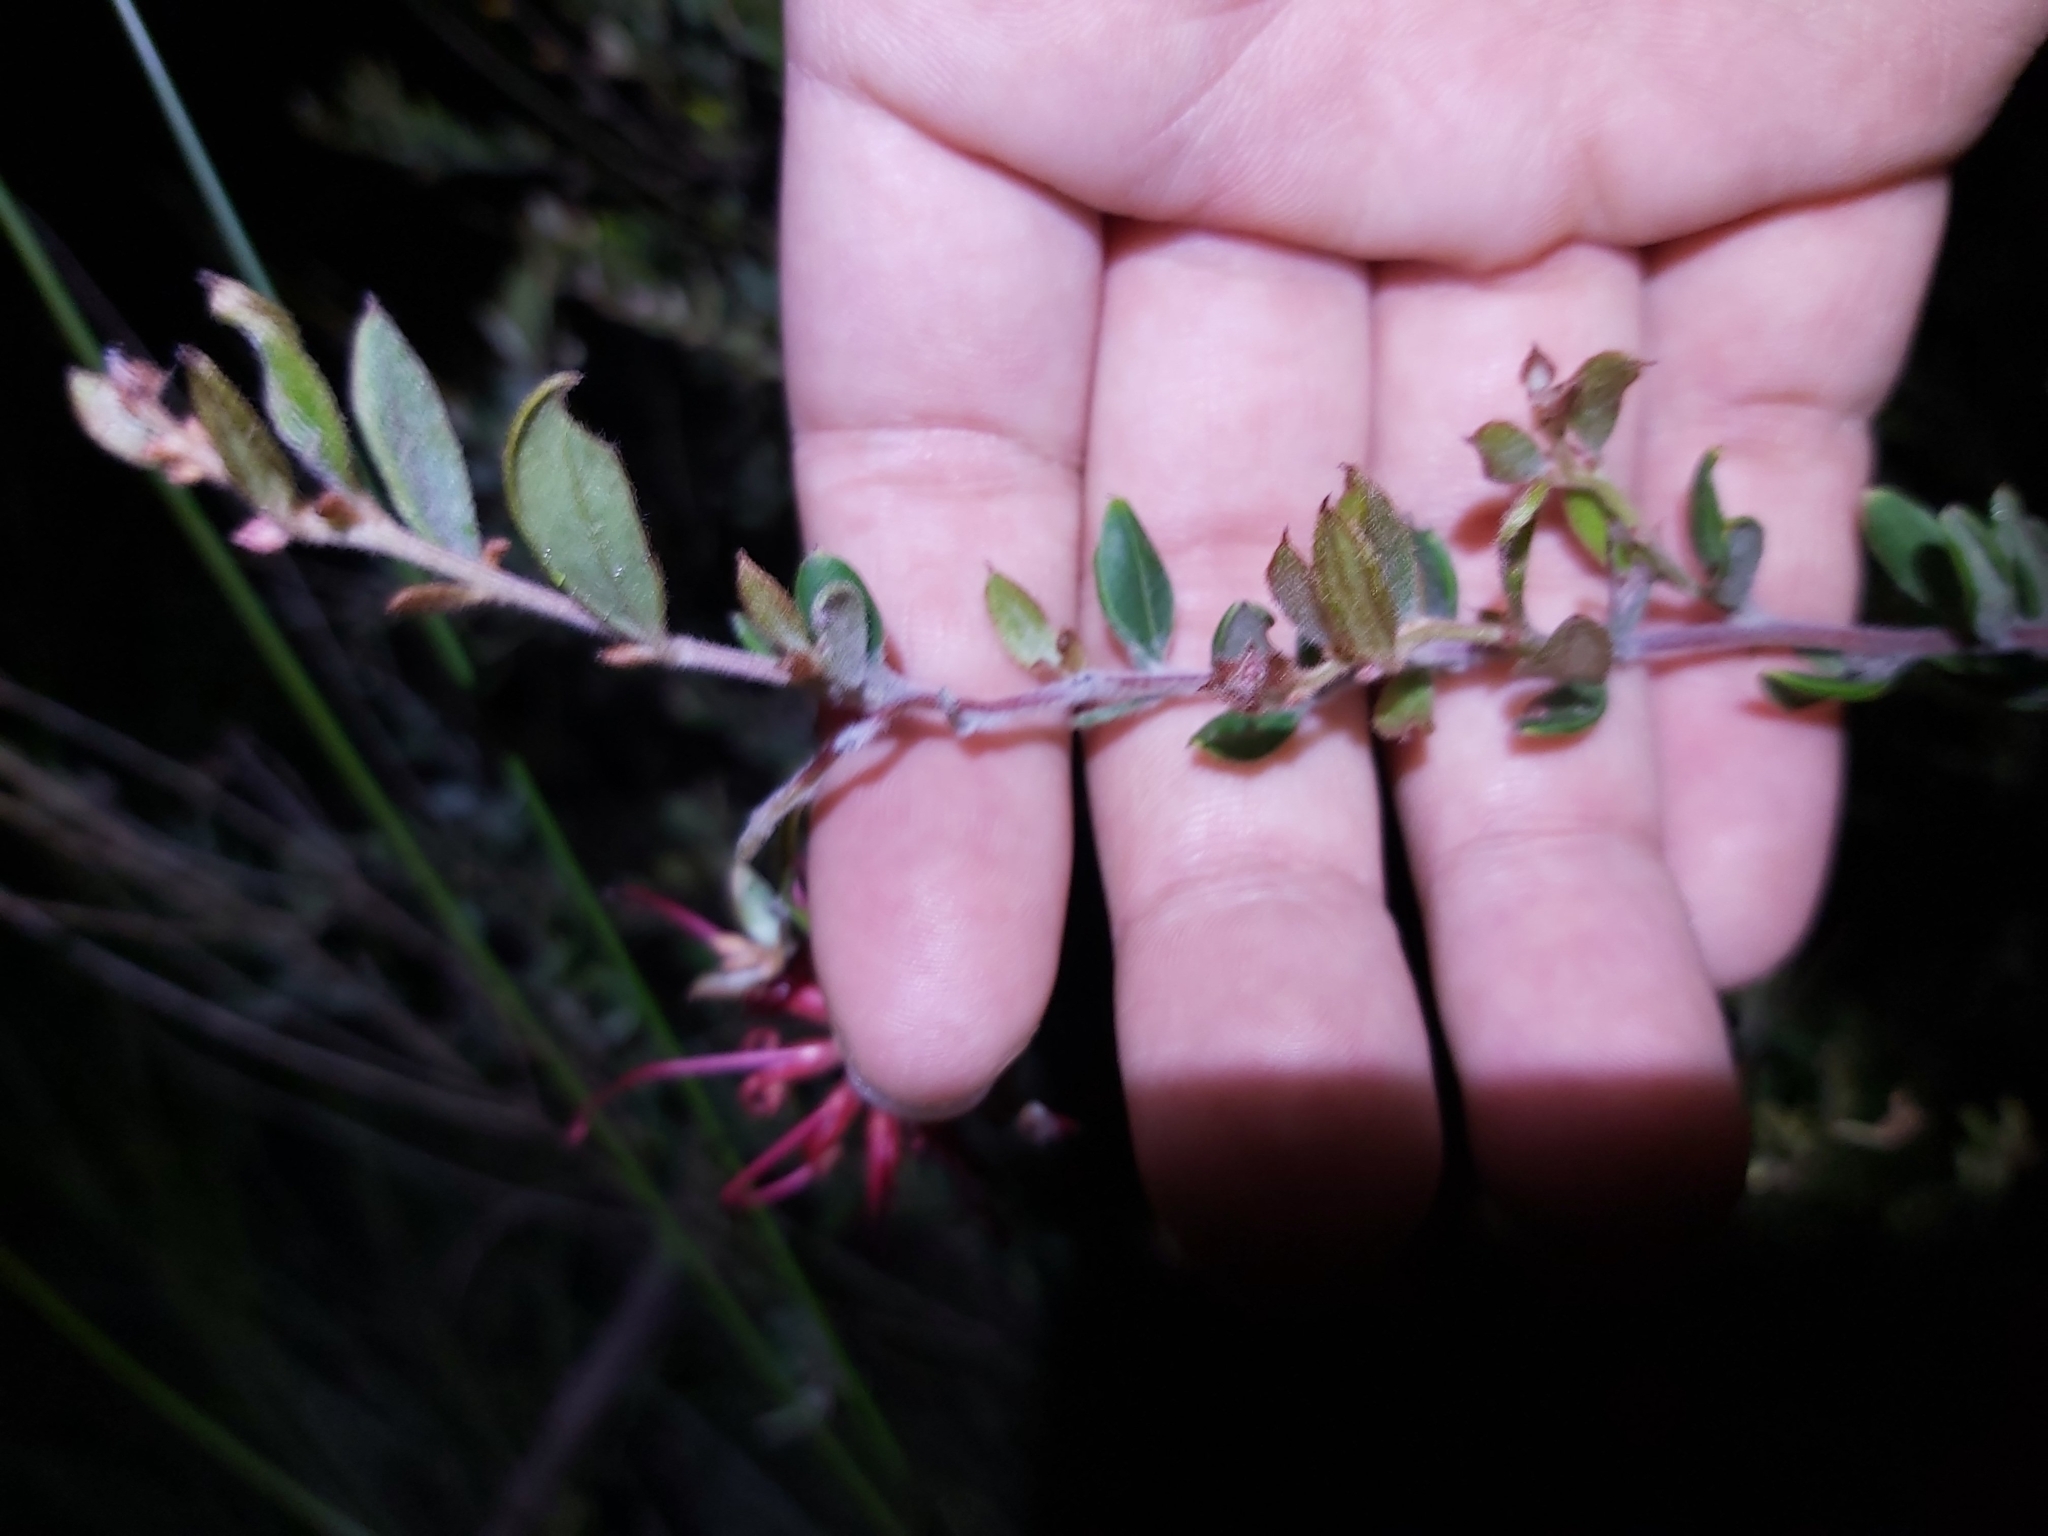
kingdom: Plantae
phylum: Tracheophyta
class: Magnoliopsida
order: Proteales
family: Proteaceae
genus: Grevillea
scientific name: Grevillea speciosa
